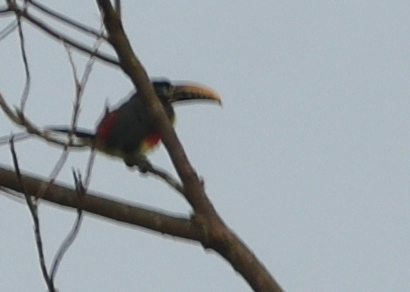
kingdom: Animalia
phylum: Chordata
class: Aves
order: Piciformes
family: Ramphastidae
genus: Pteroglossus
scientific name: Pteroglossus castanotis
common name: Chestnut-eared aracari
